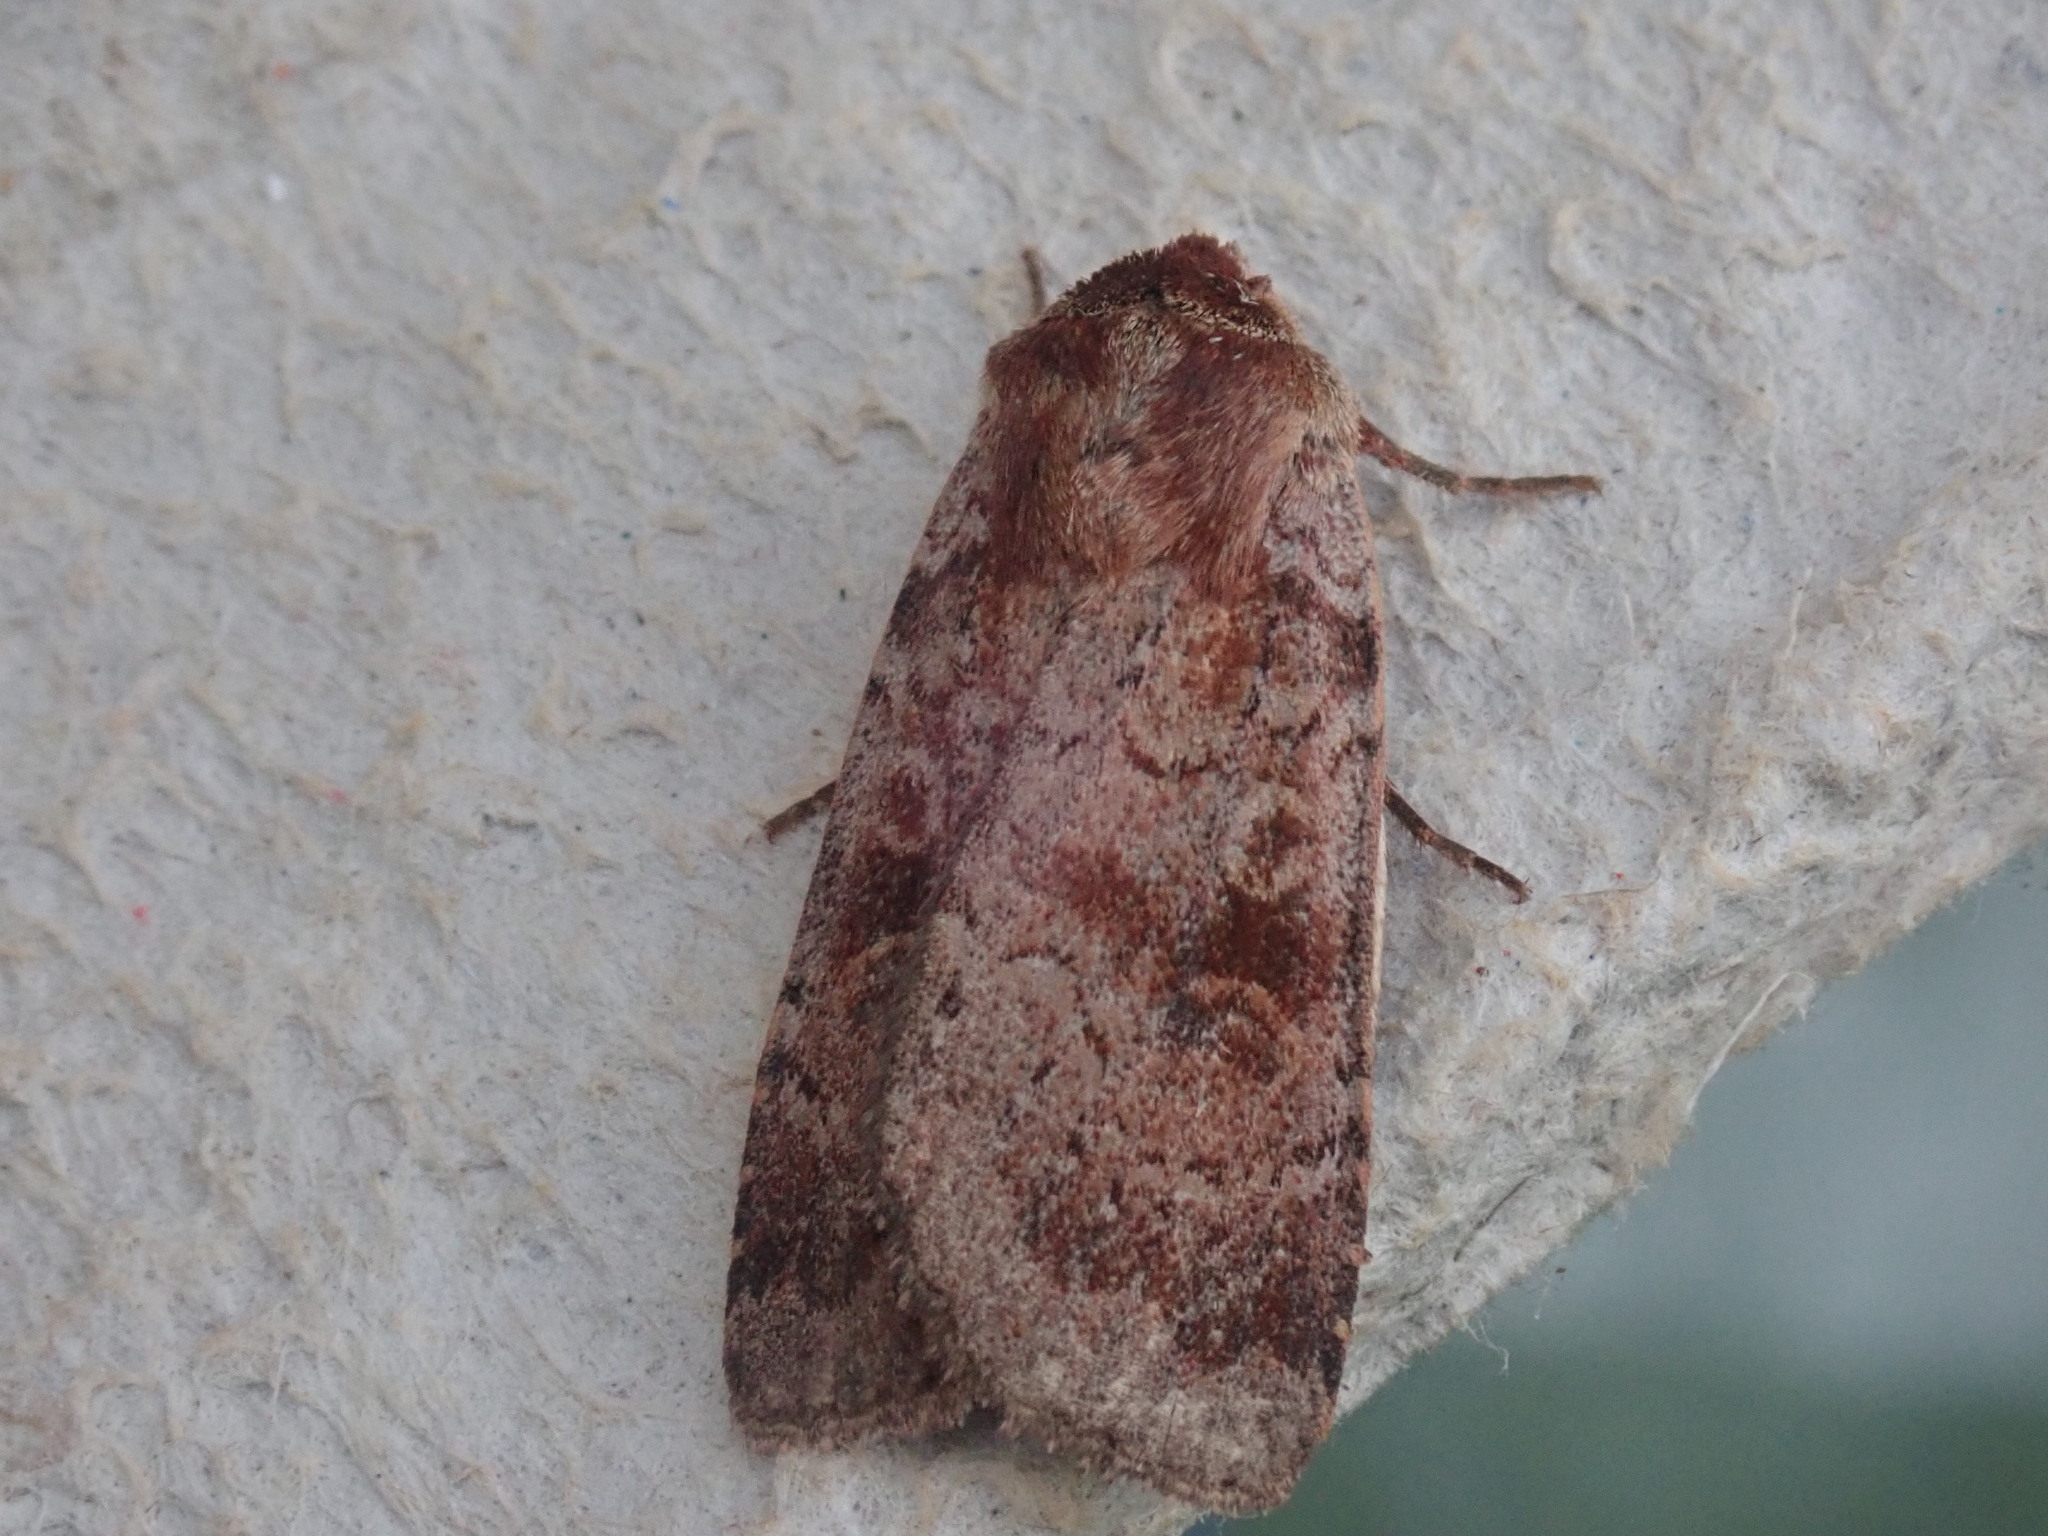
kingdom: Animalia
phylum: Arthropoda
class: Insecta
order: Lepidoptera
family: Noctuidae
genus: Lycophotia
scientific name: Lycophotia phyllophora
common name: Lycophotia moth
